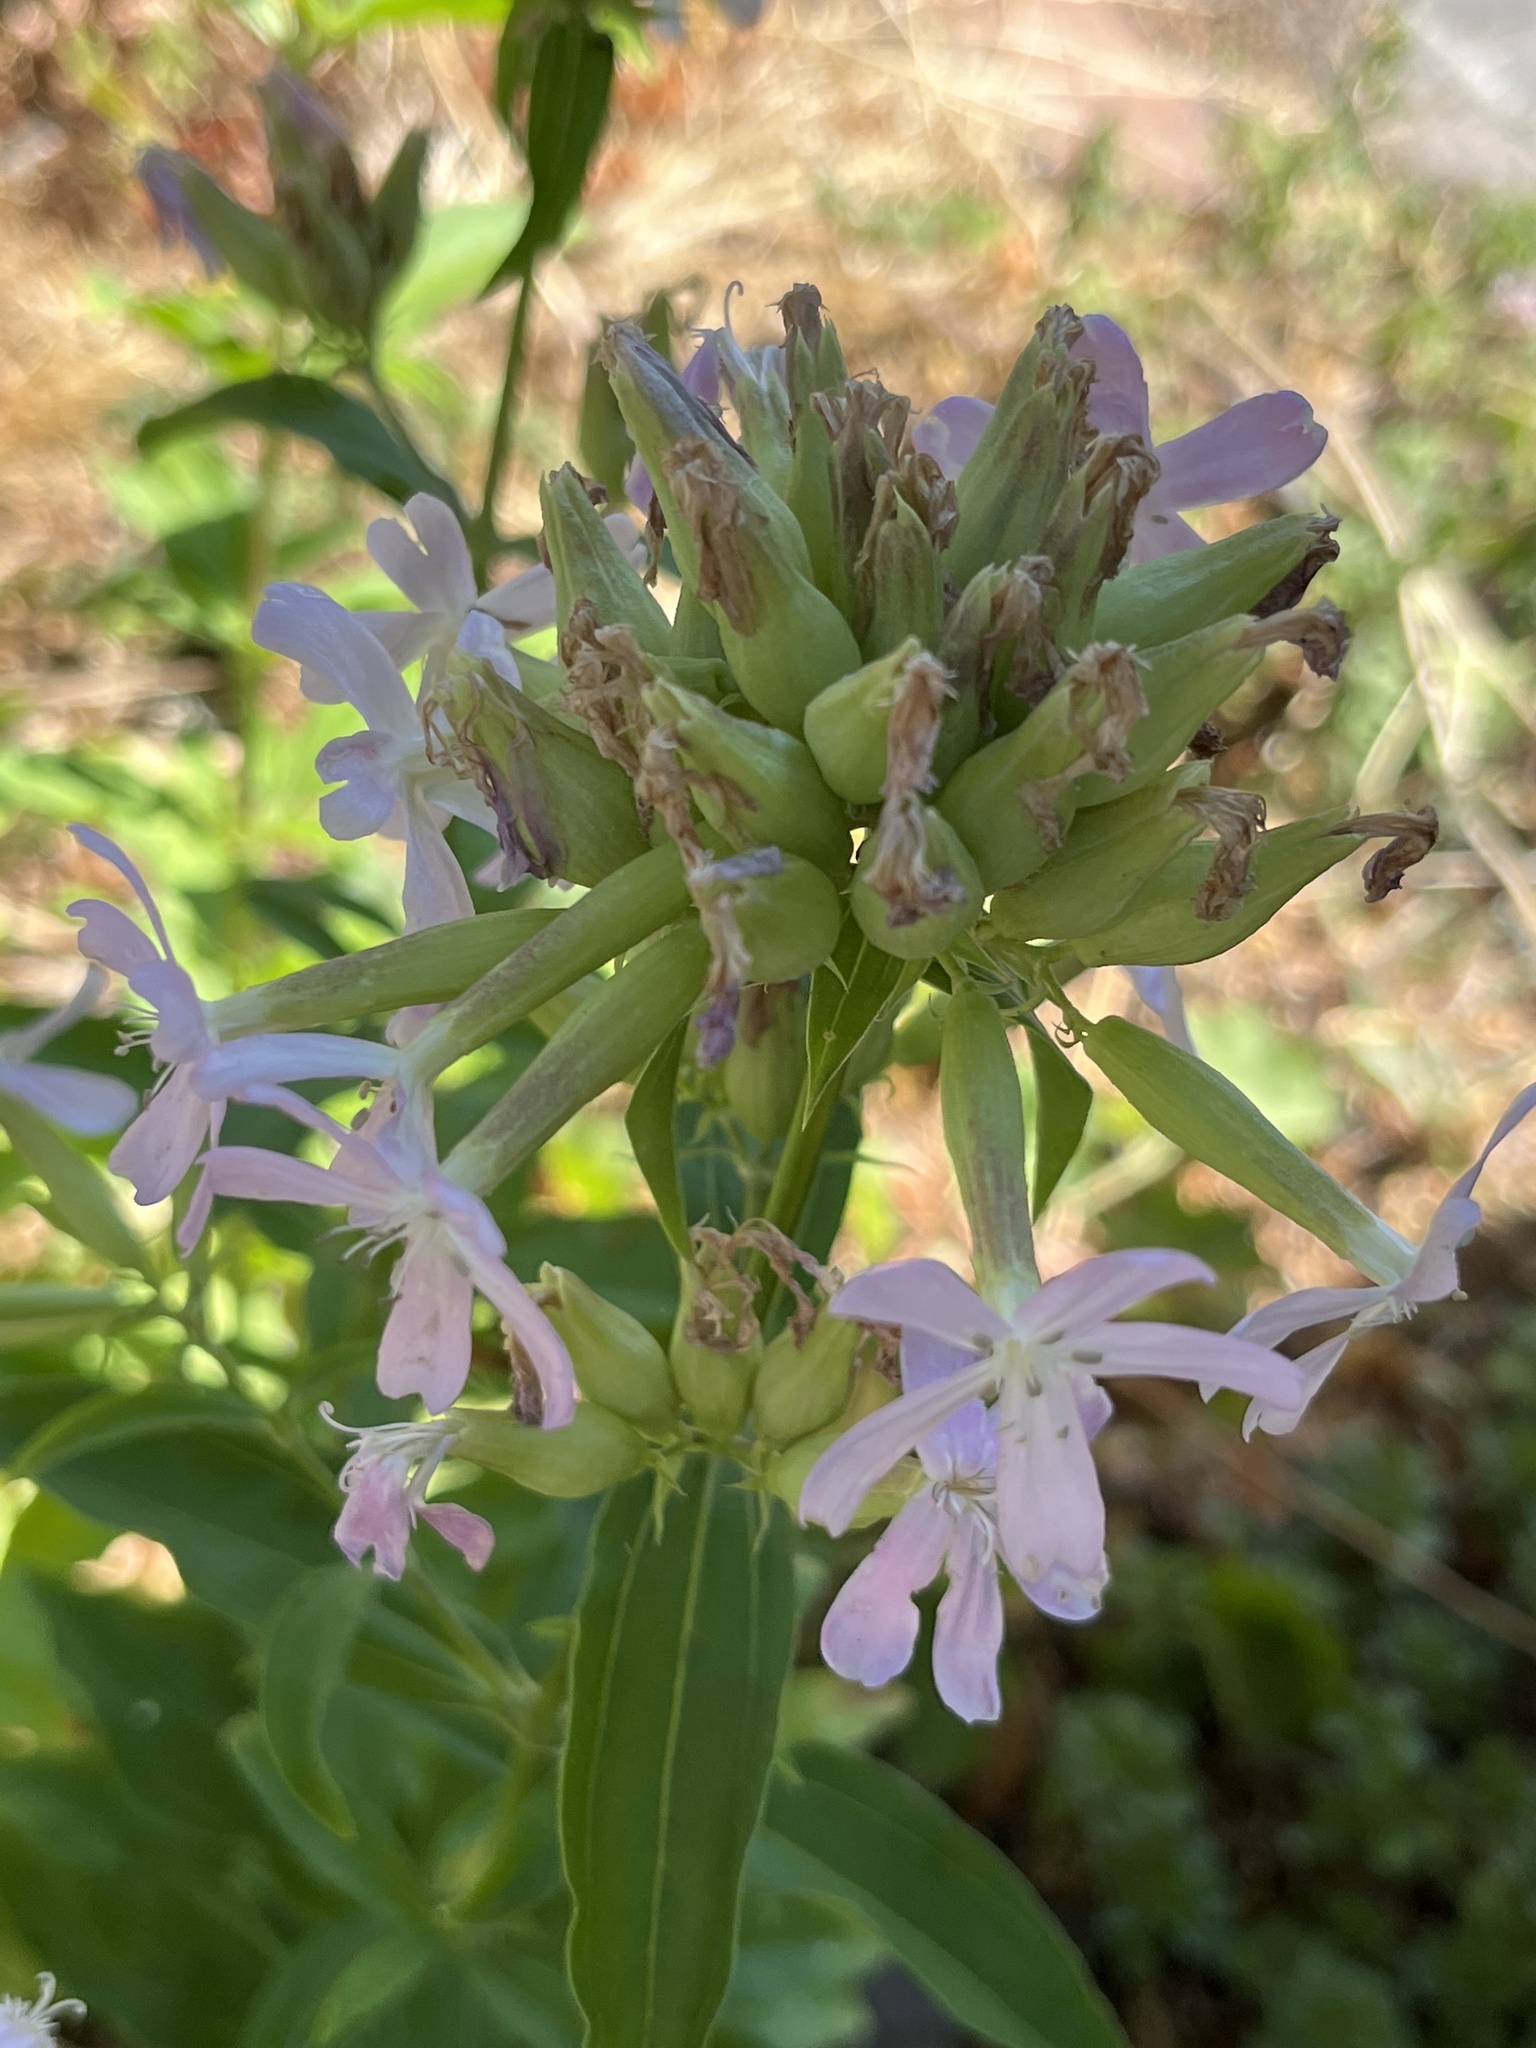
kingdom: Plantae
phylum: Tracheophyta
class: Magnoliopsida
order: Caryophyllales
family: Caryophyllaceae
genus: Saponaria
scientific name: Saponaria officinalis
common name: Soapwort
